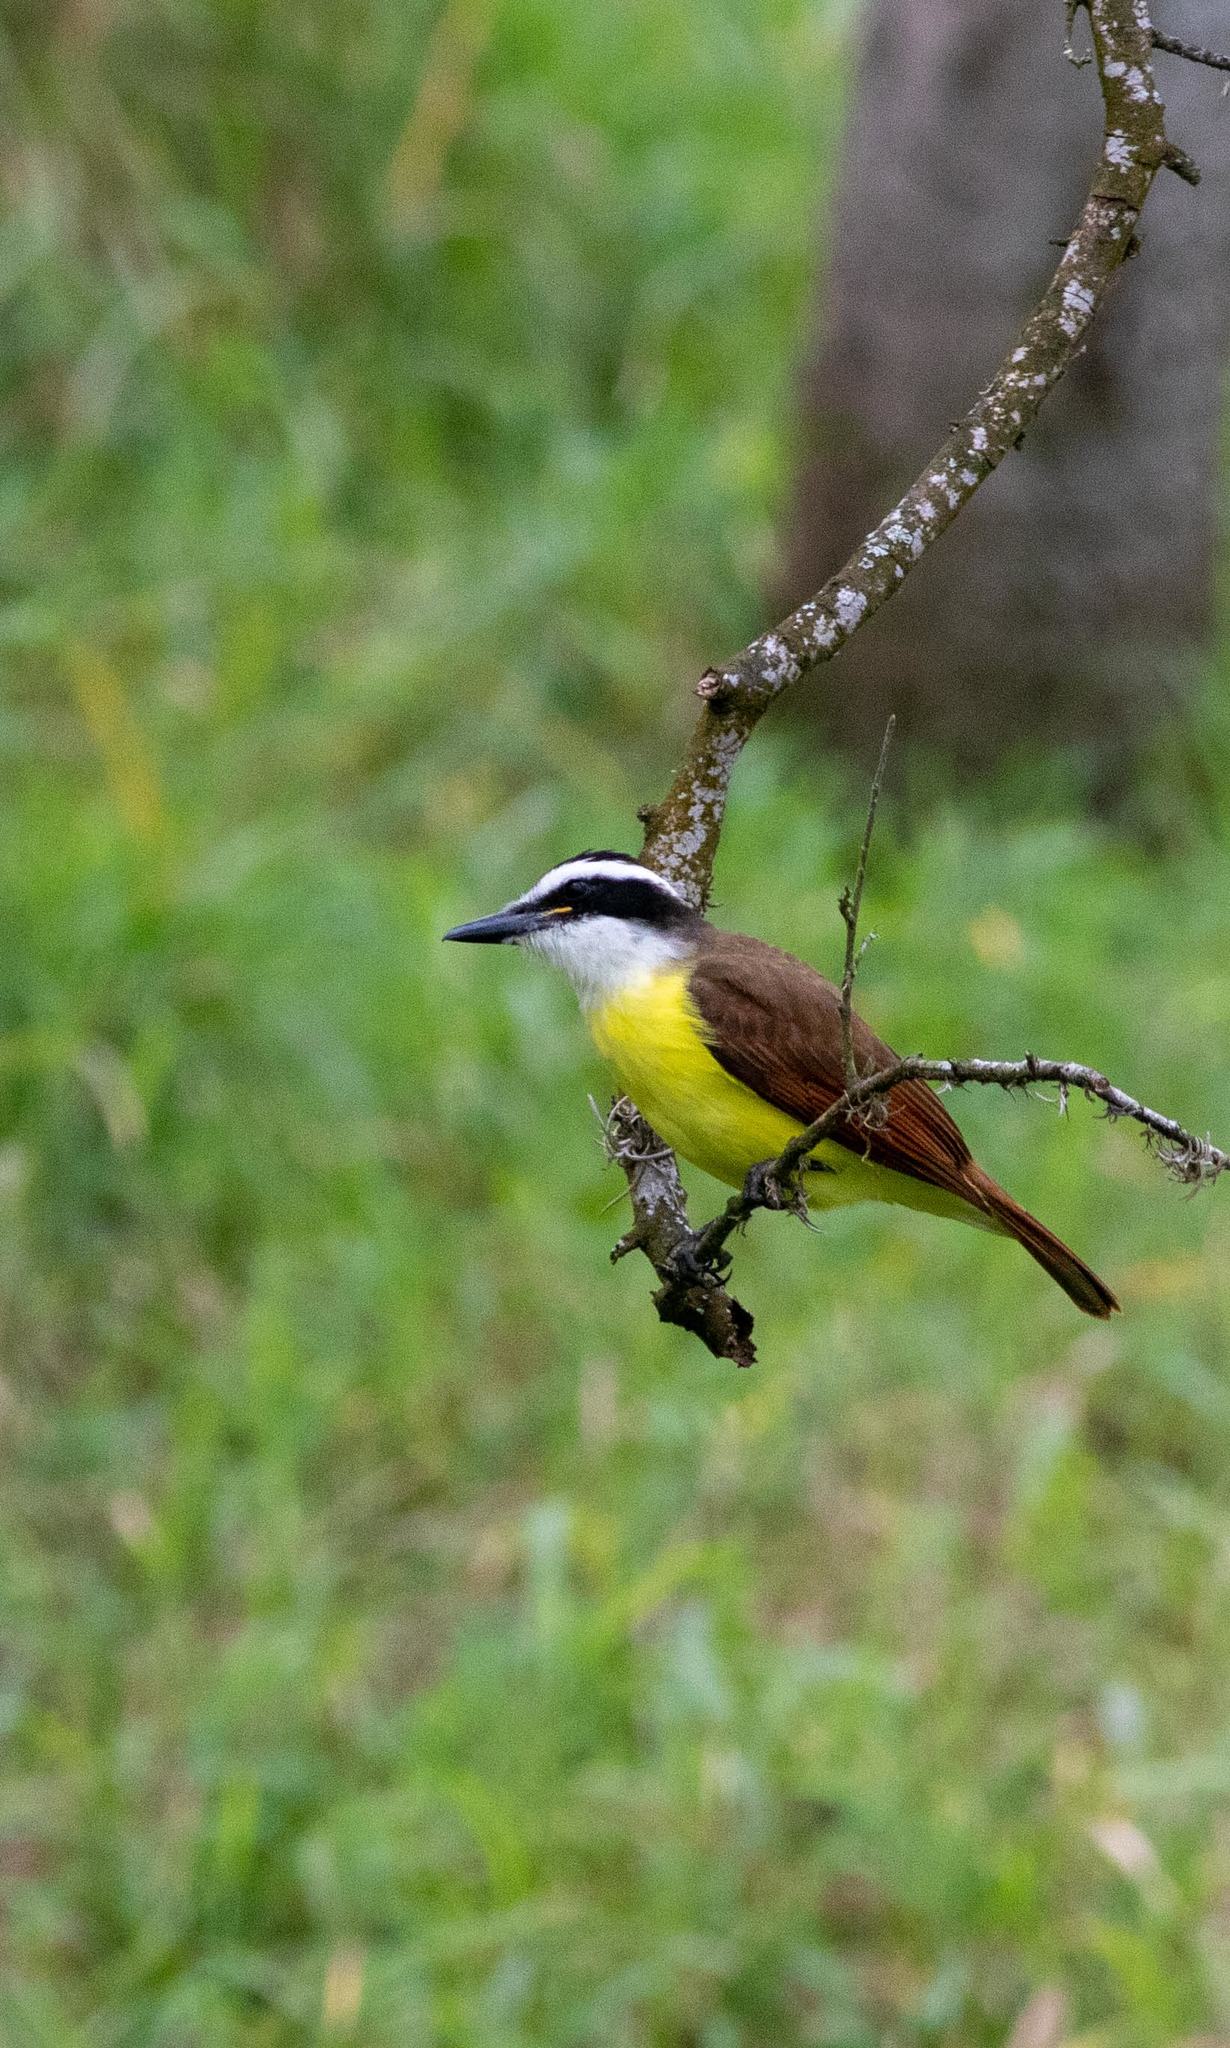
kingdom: Animalia
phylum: Chordata
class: Aves
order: Passeriformes
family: Tyrannidae
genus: Pitangus
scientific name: Pitangus sulphuratus
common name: Great kiskadee
